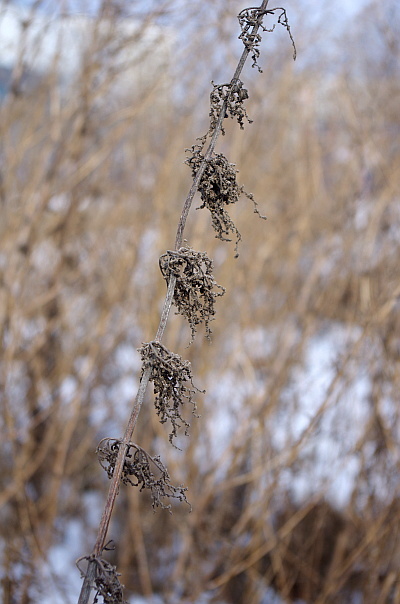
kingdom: Plantae
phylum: Tracheophyta
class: Magnoliopsida
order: Rosales
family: Urticaceae
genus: Urtica
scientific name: Urtica dioica
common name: Common nettle
